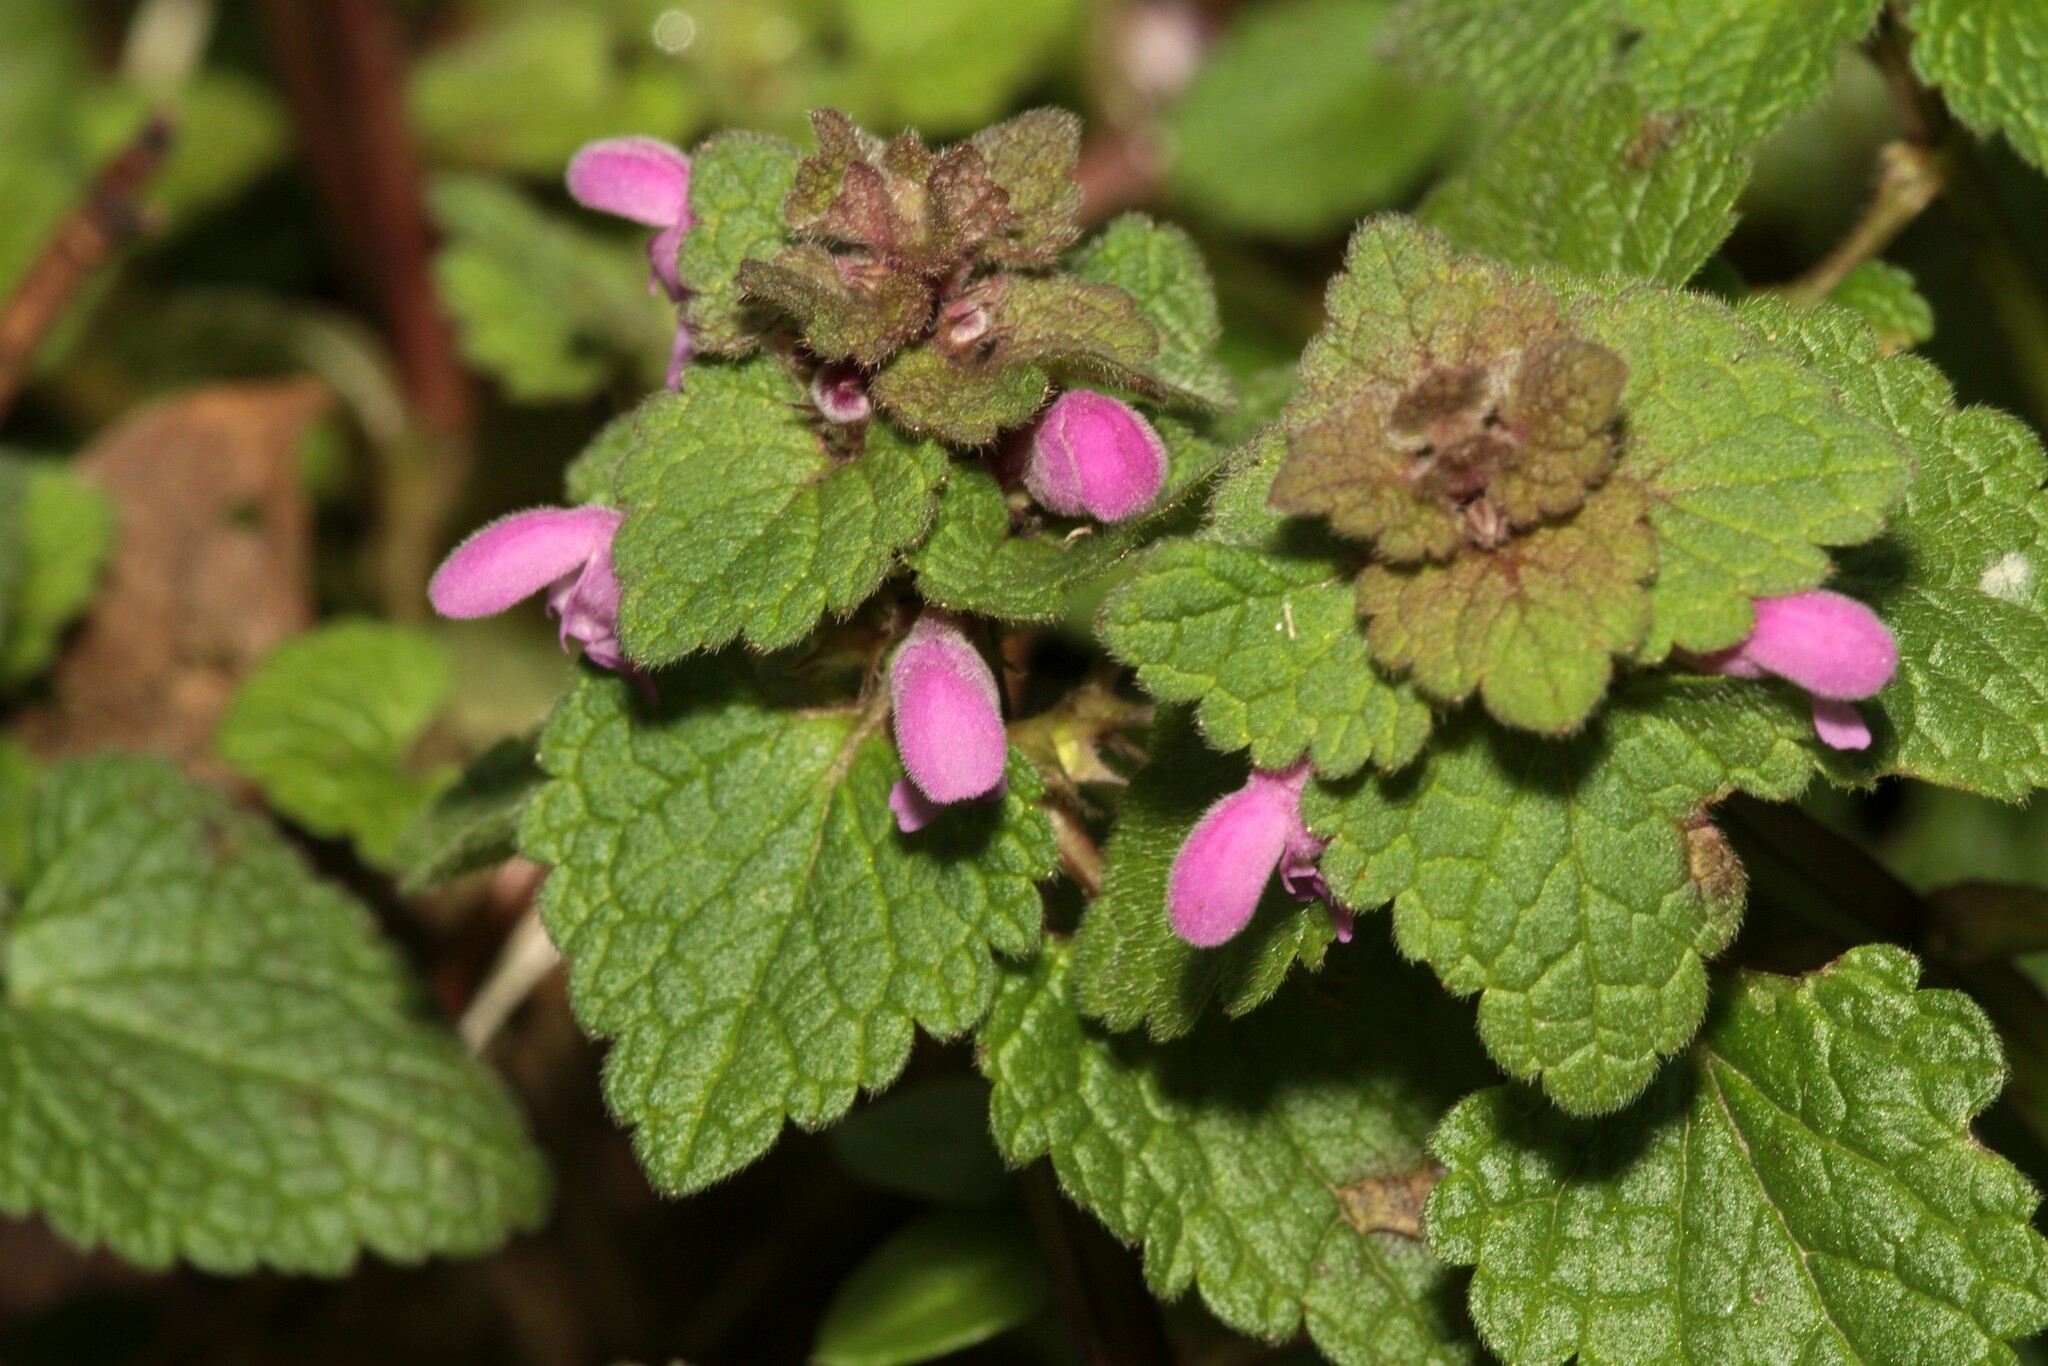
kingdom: Plantae
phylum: Tracheophyta
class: Magnoliopsida
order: Lamiales
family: Lamiaceae
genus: Lamium
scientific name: Lamium purpureum
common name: Red dead-nettle
